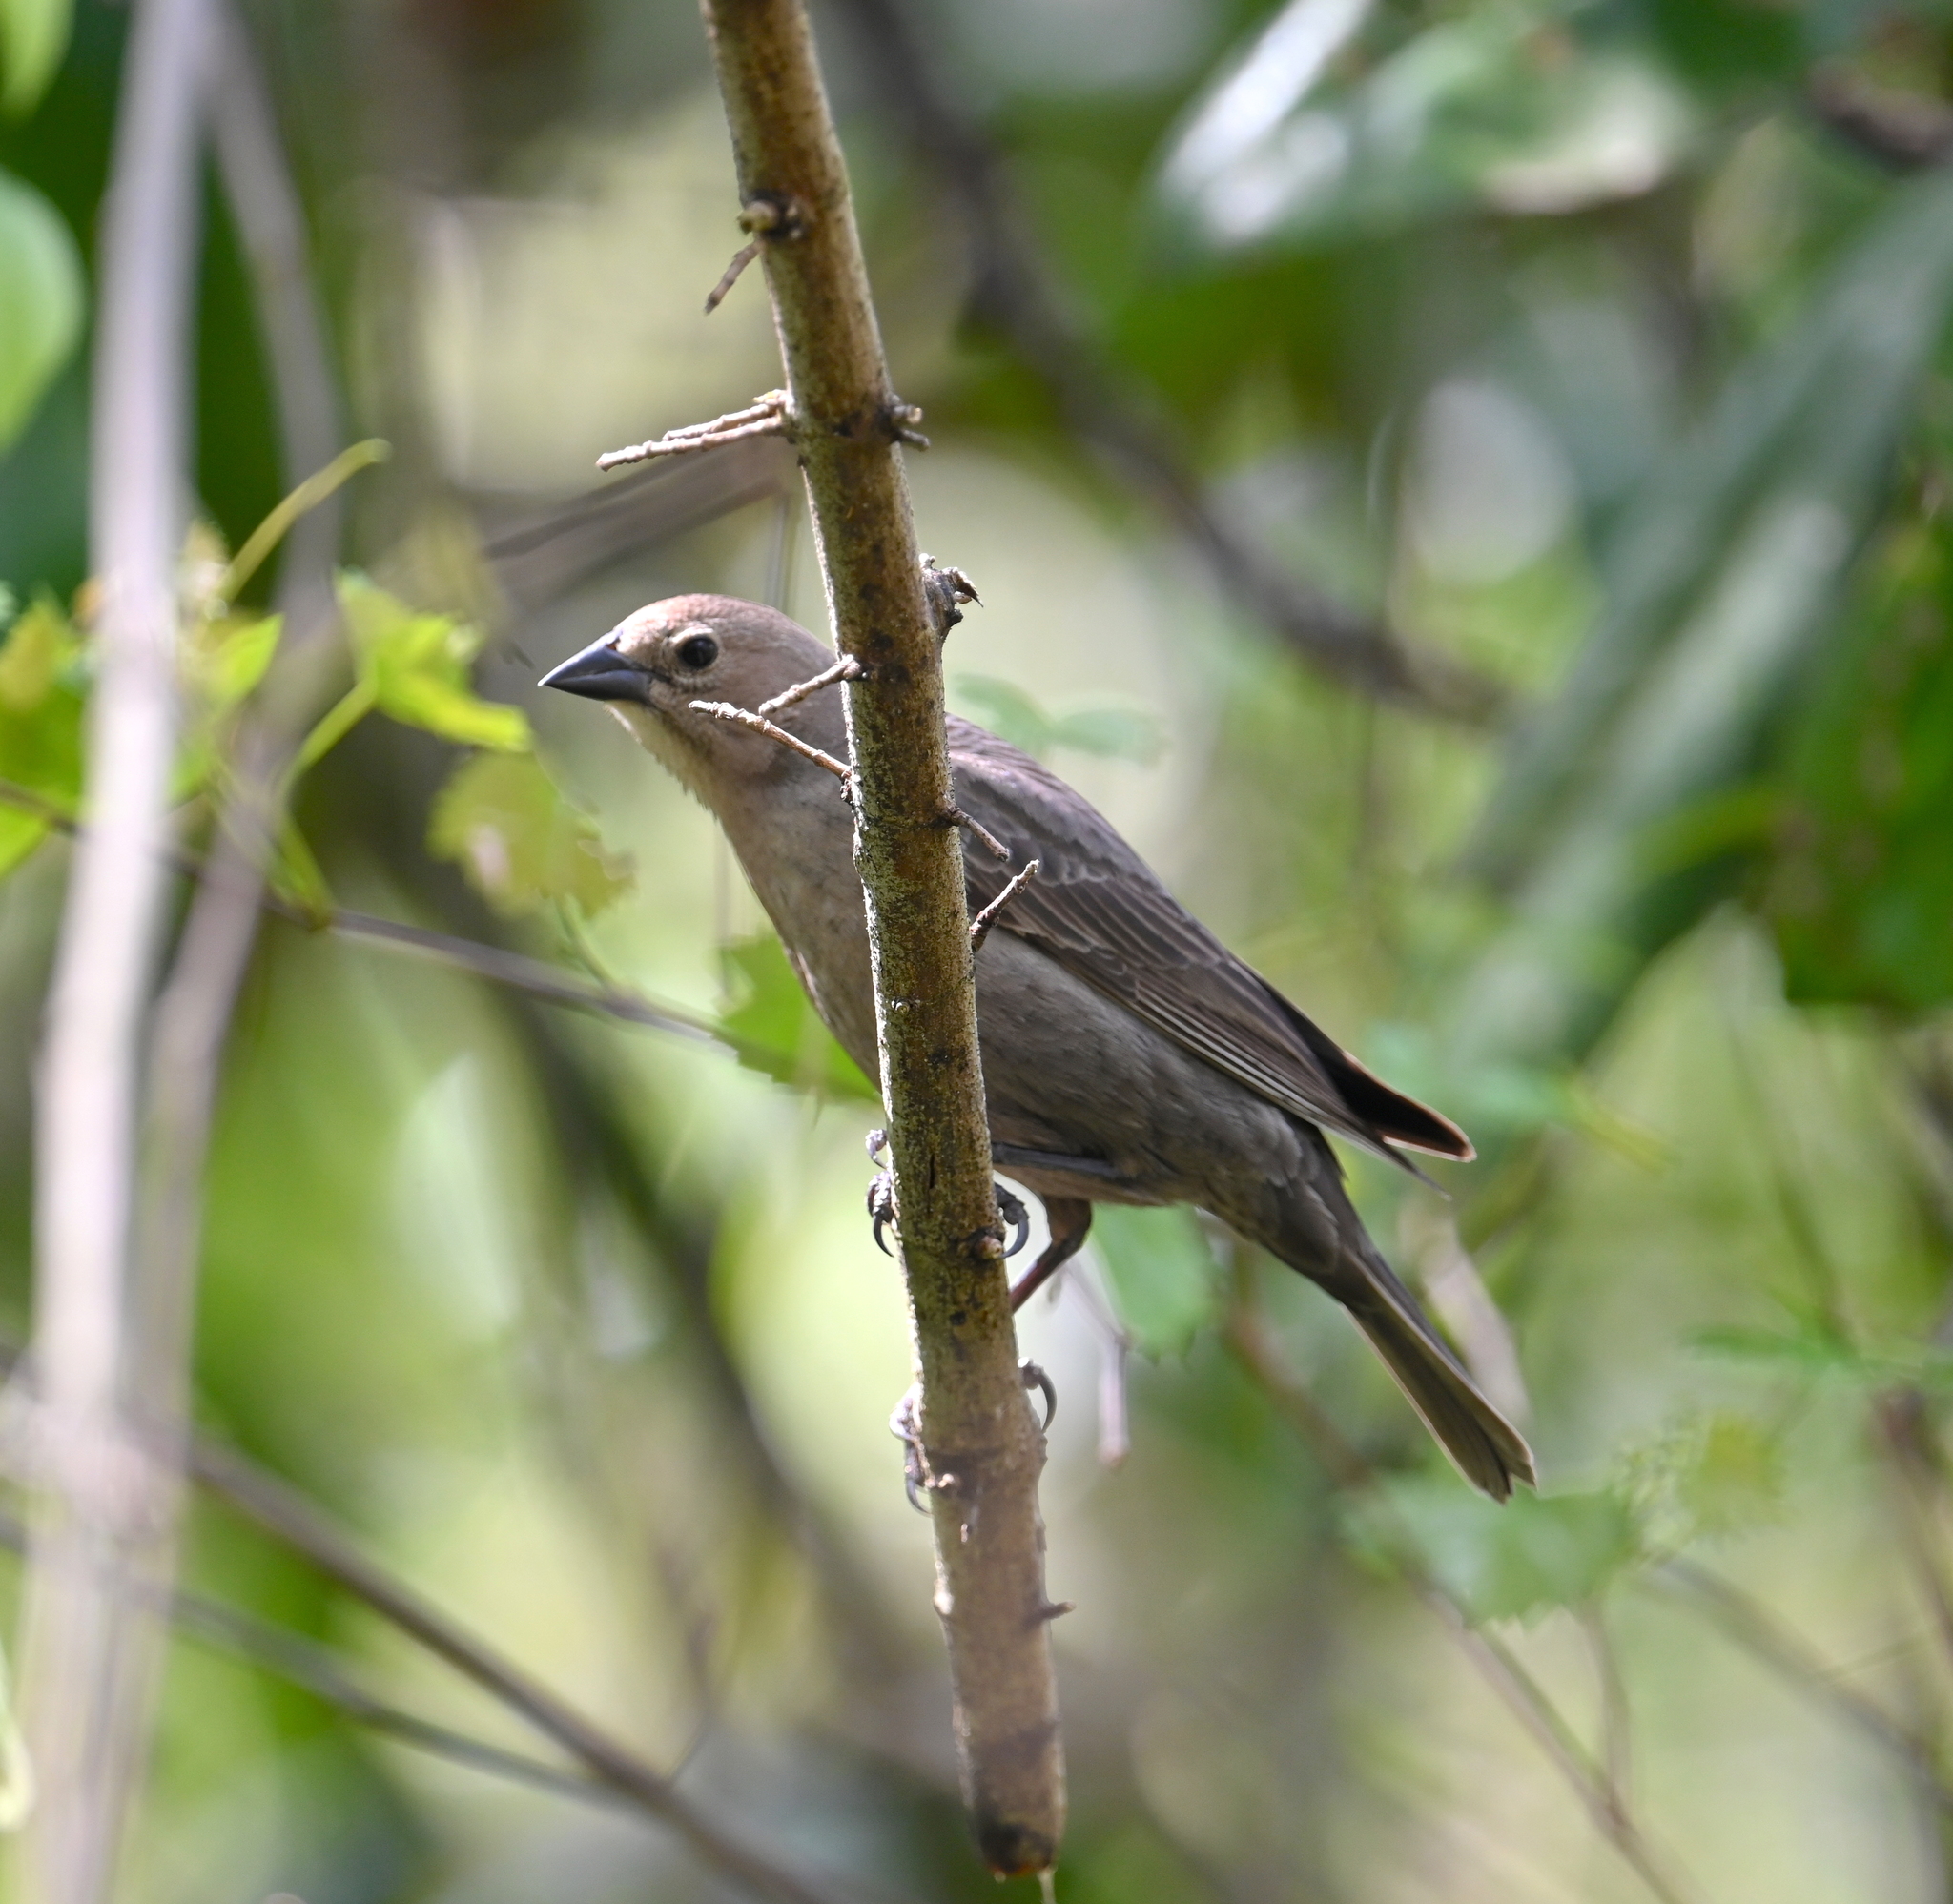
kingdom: Animalia
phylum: Chordata
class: Aves
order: Passeriformes
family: Icteridae
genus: Molothrus
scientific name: Molothrus ater
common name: Brown-headed cowbird
